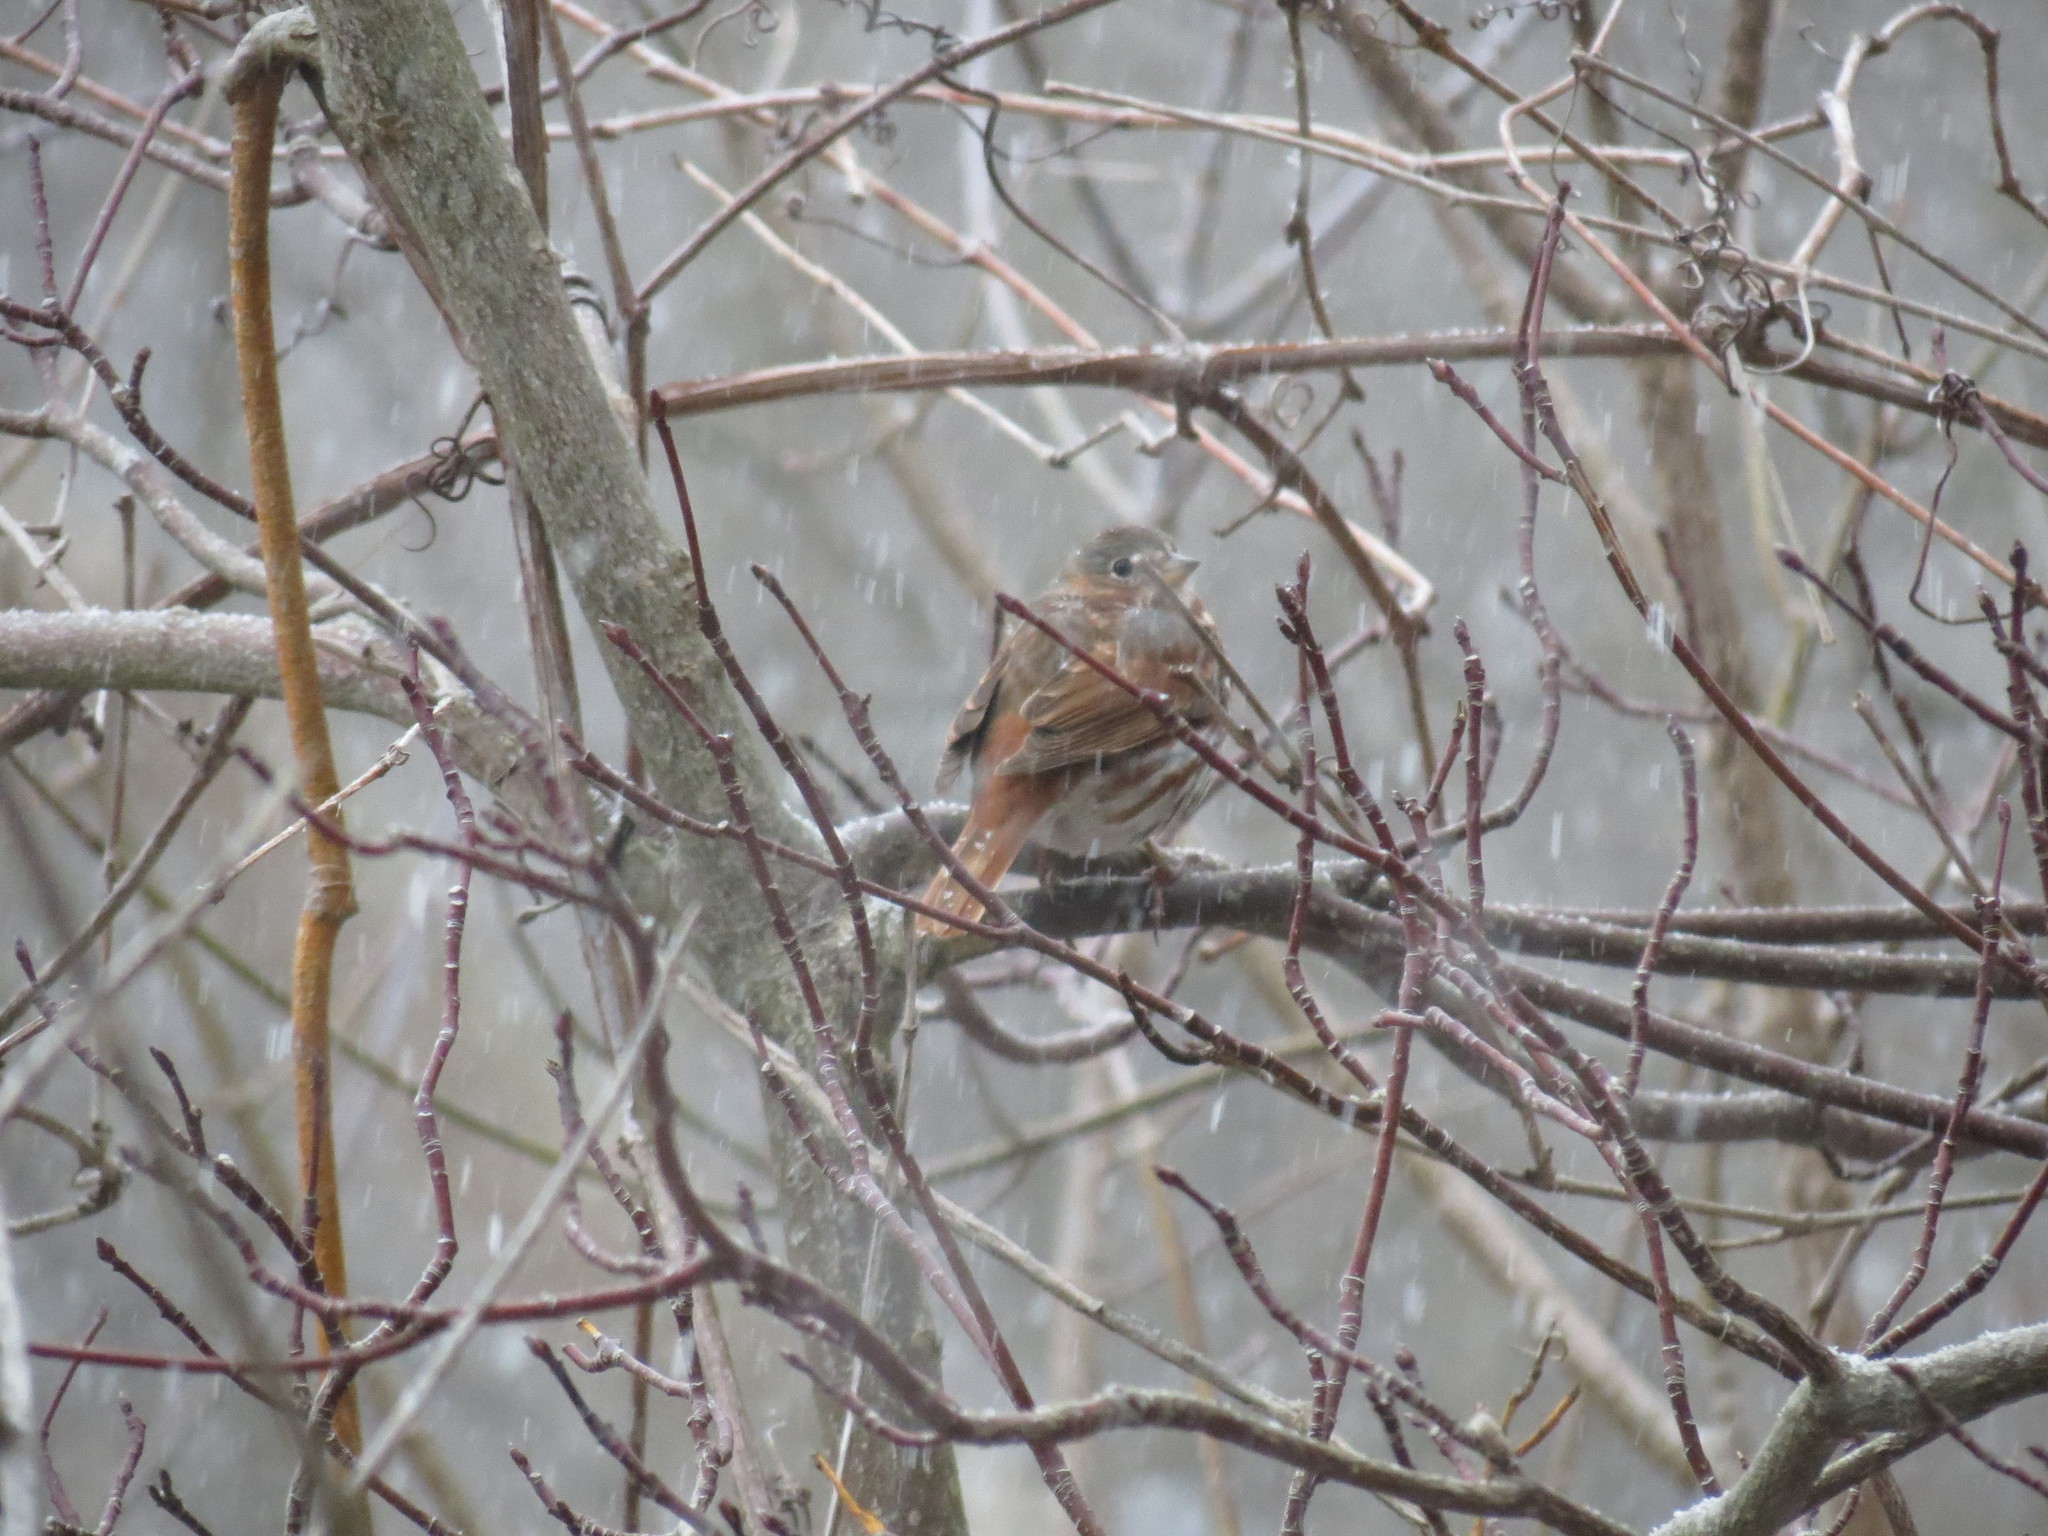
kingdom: Animalia
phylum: Chordata
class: Aves
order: Passeriformes
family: Passerellidae
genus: Passerella
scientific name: Passerella iliaca
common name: Fox sparrow
